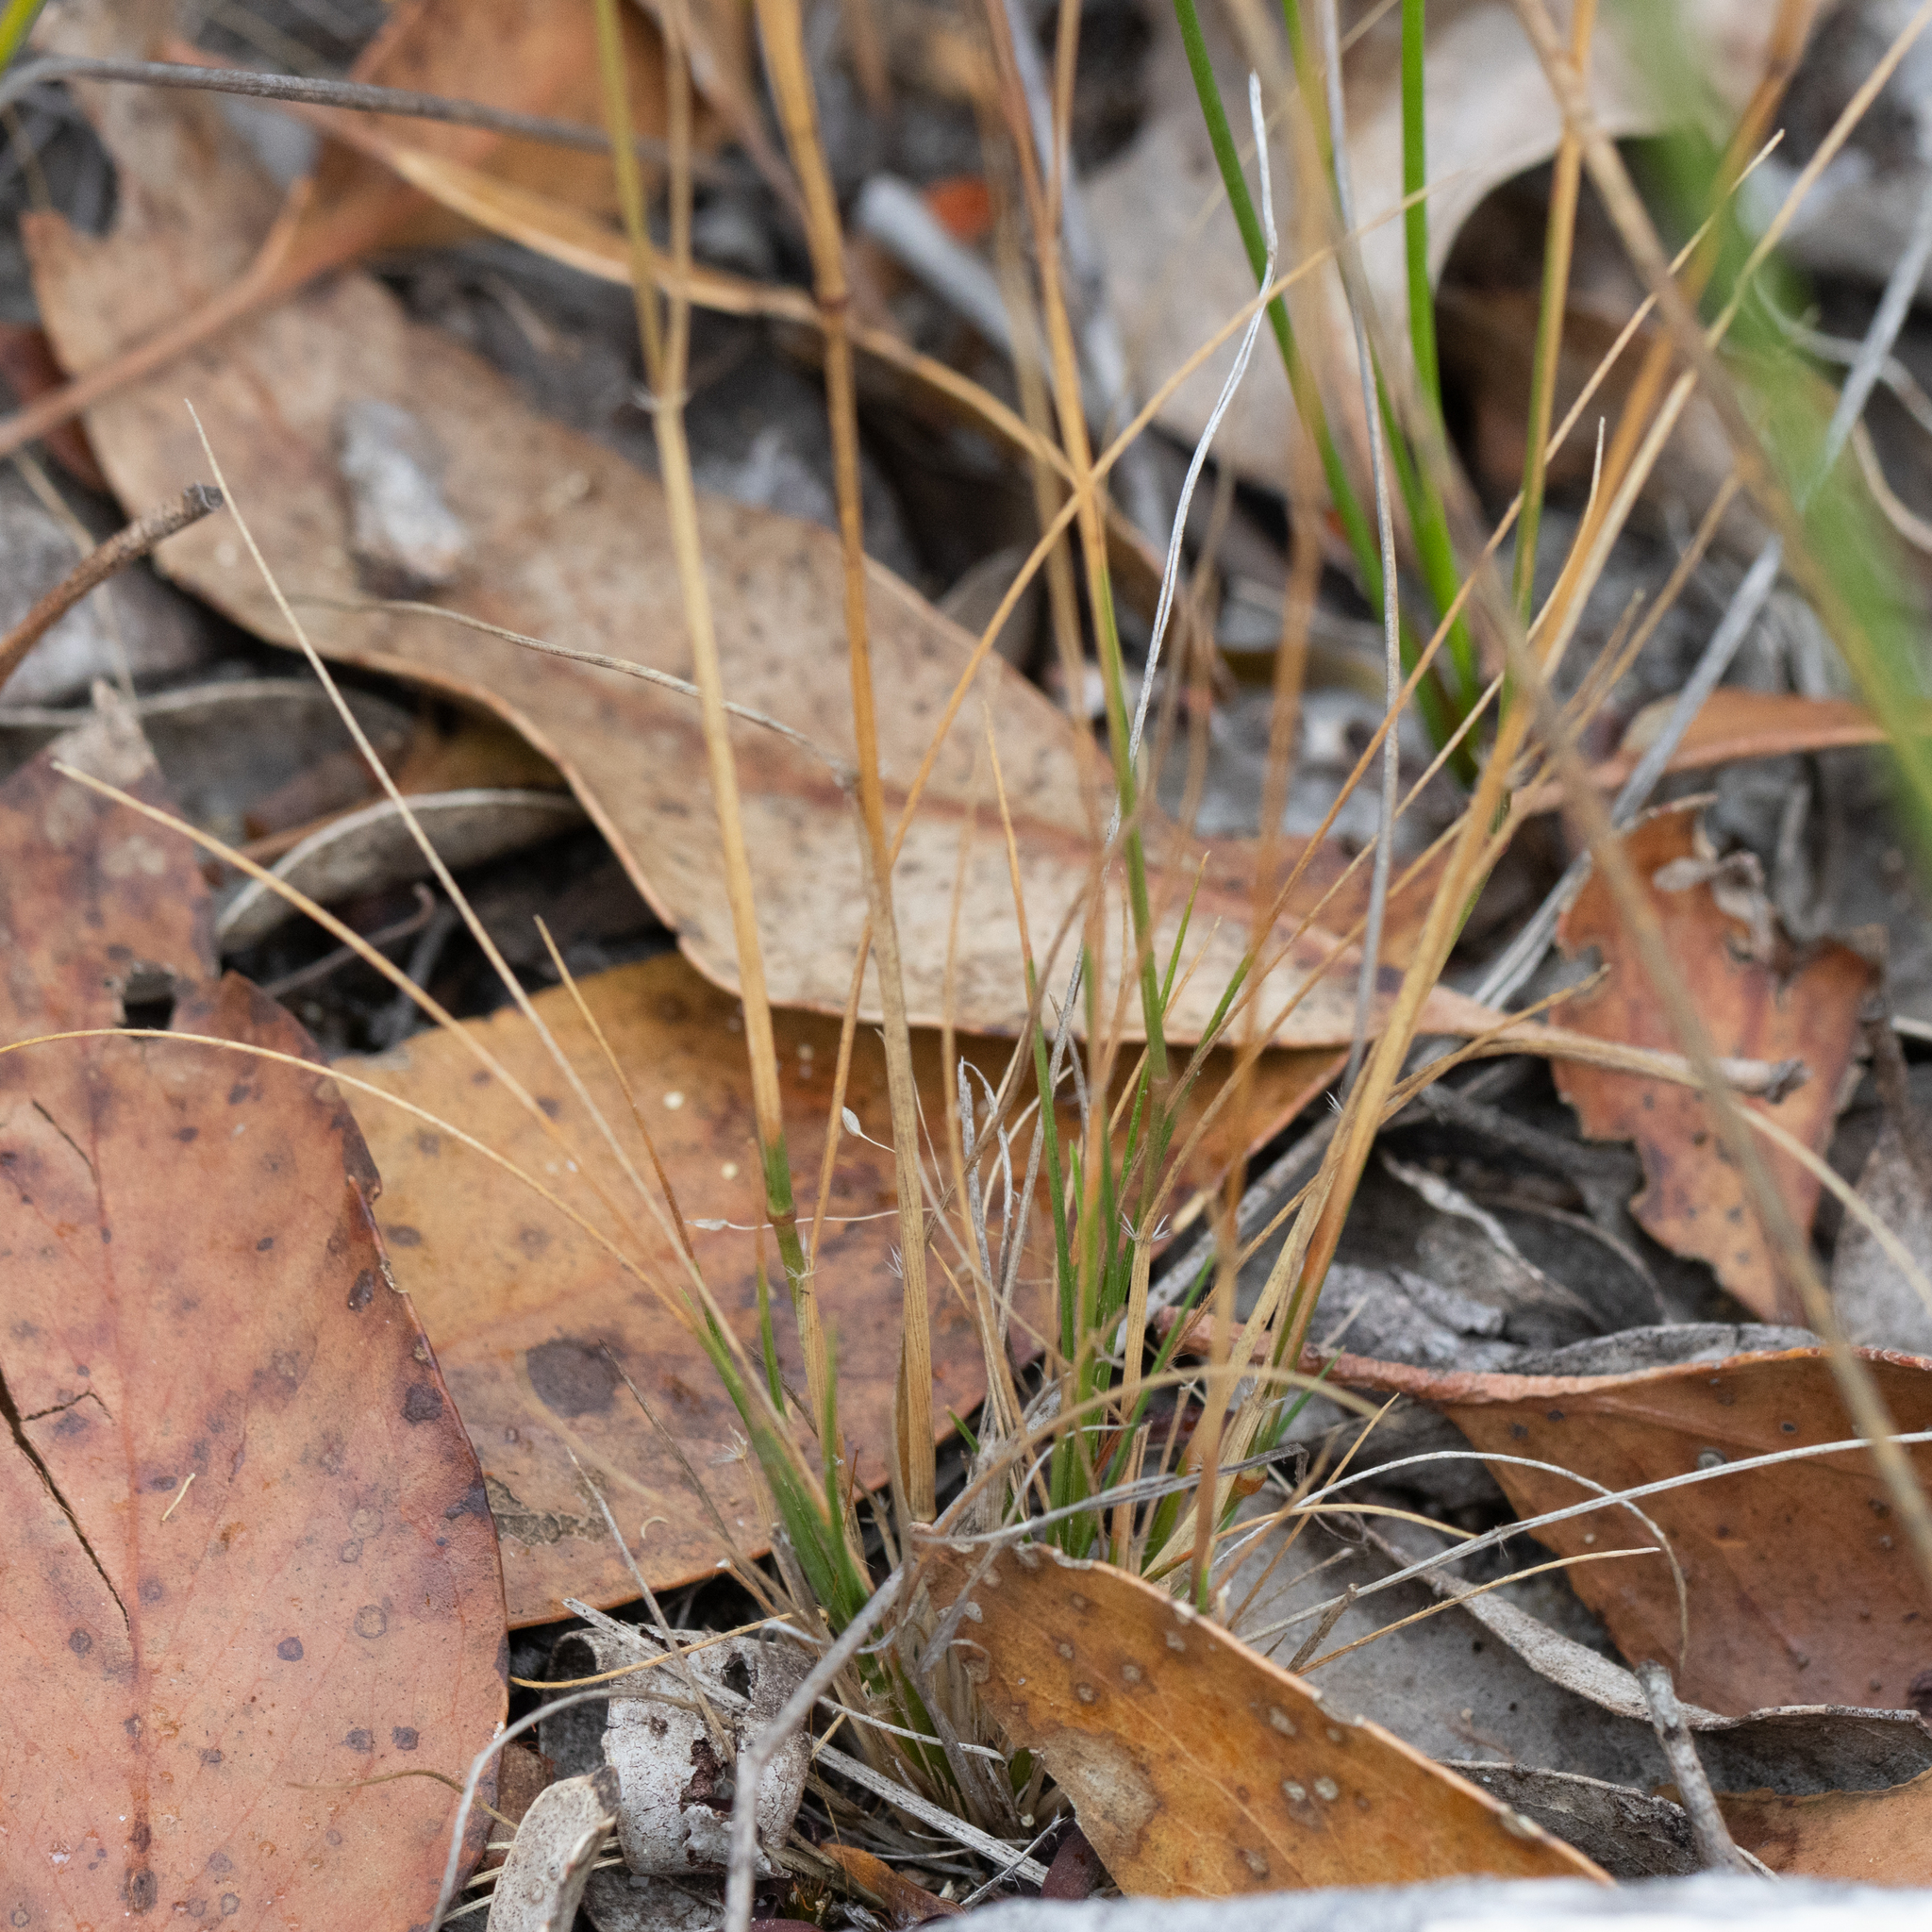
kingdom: Plantae
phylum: Tracheophyta
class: Liliopsida
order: Poales
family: Poaceae
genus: Rytidosperma
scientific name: Rytidosperma setaceum
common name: Small-flower wallaby grass
